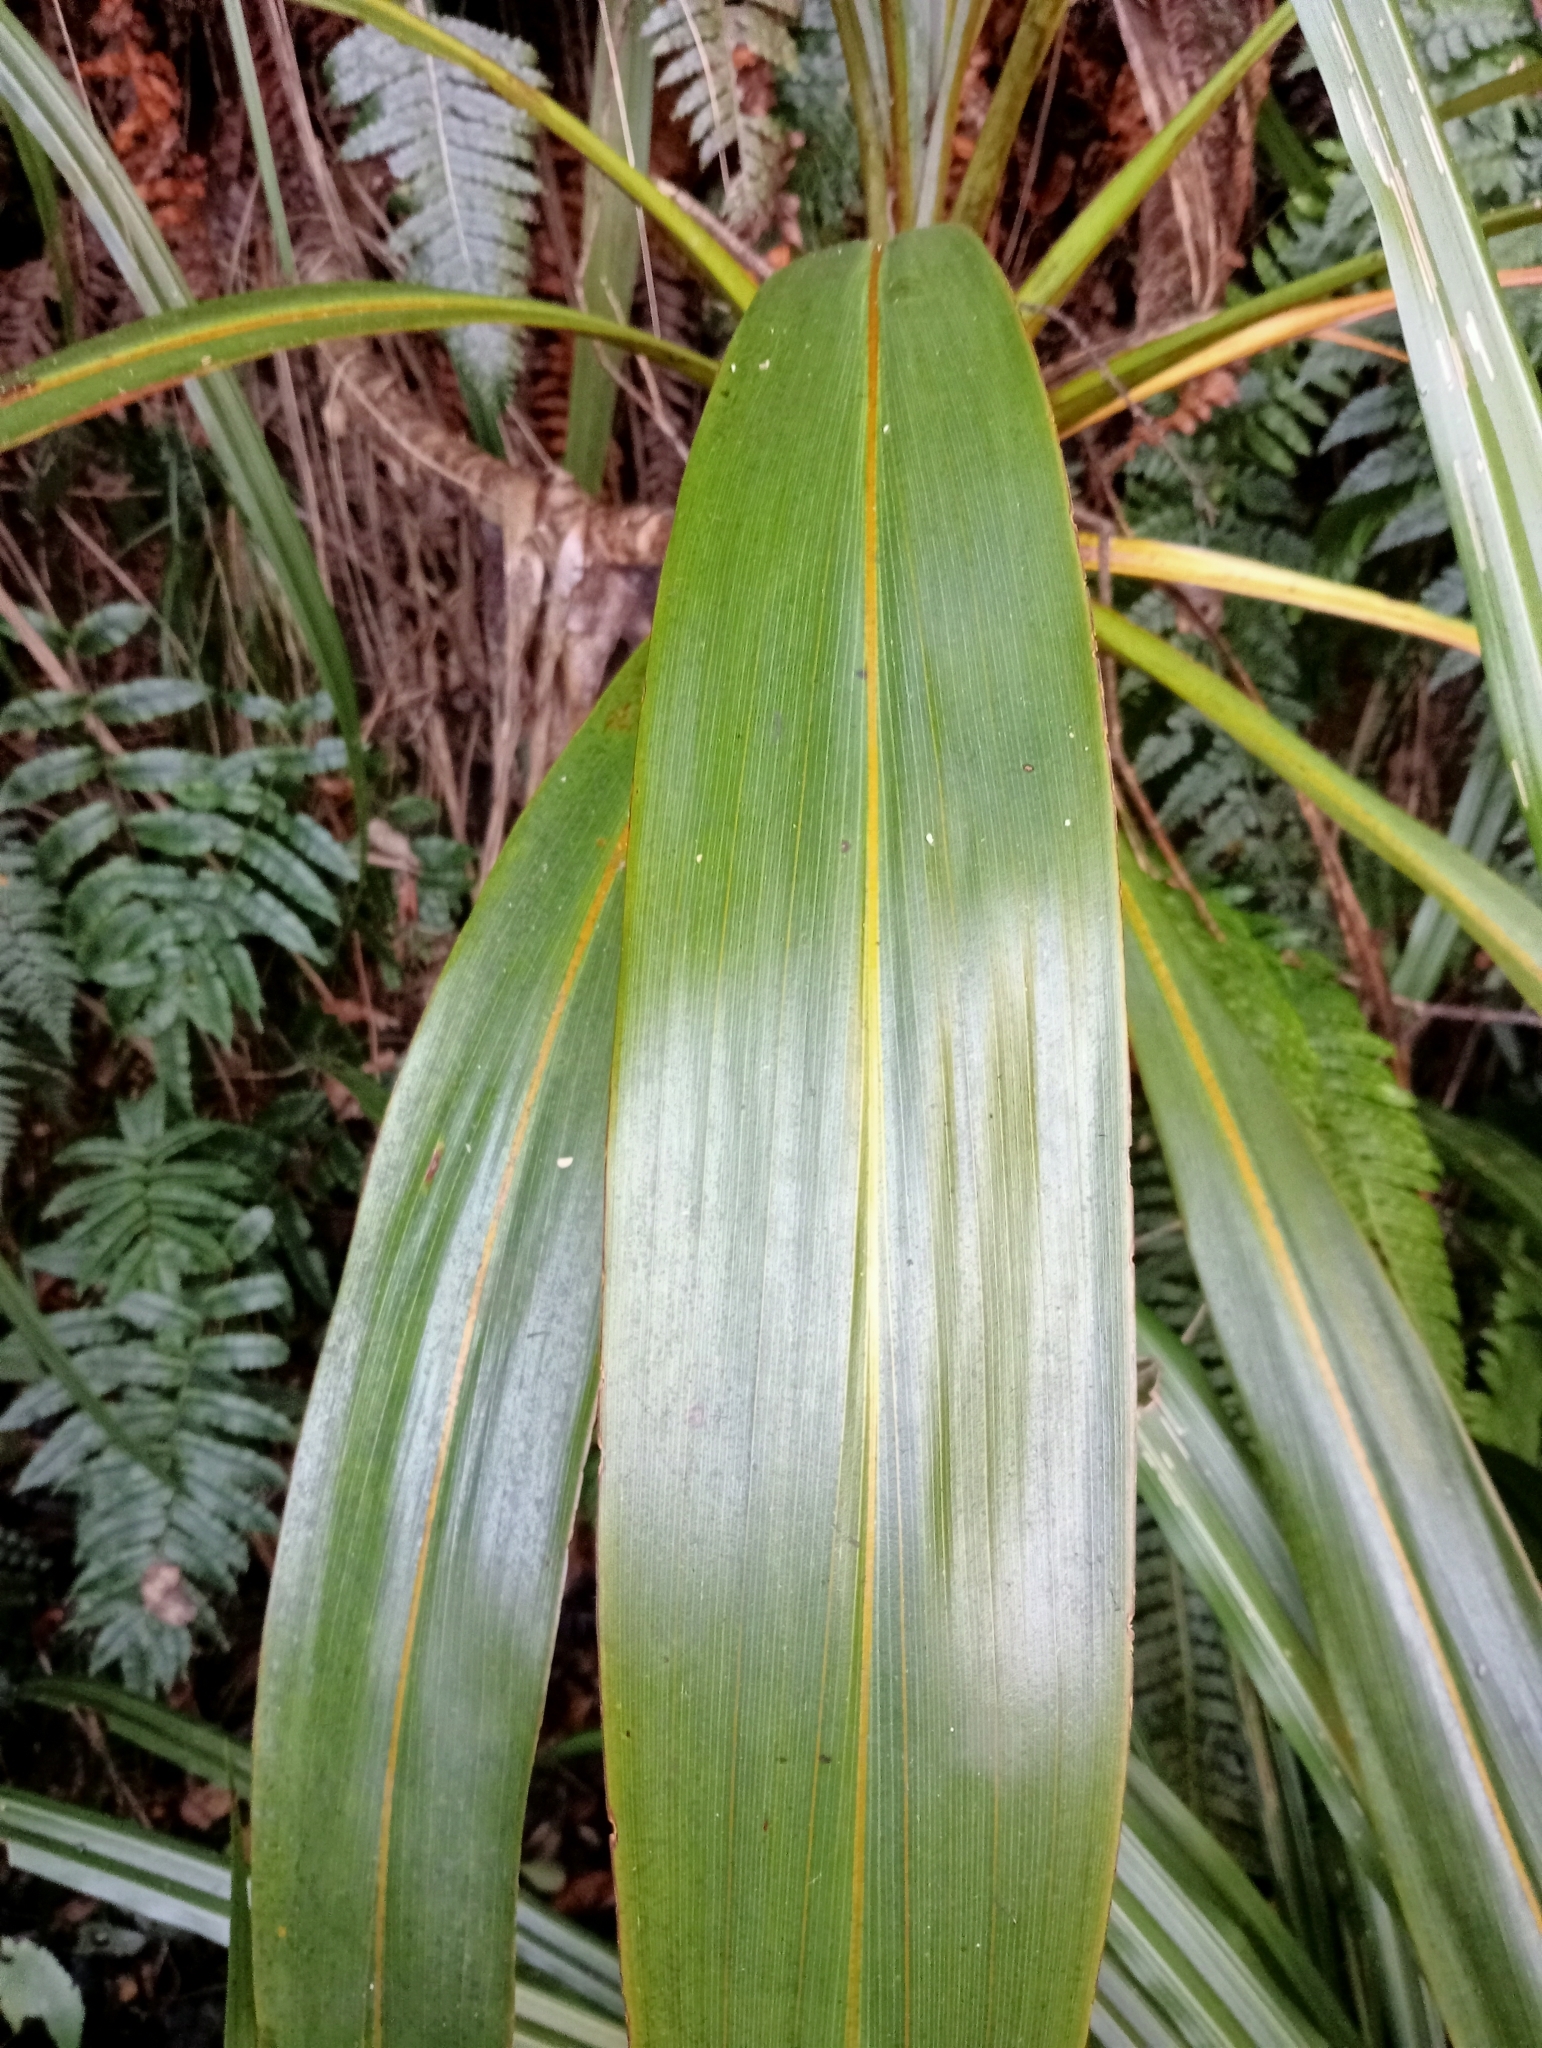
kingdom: Plantae
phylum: Tracheophyta
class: Liliopsida
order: Asparagales
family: Asparagaceae
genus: Cordyline
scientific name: Cordyline indivisa
